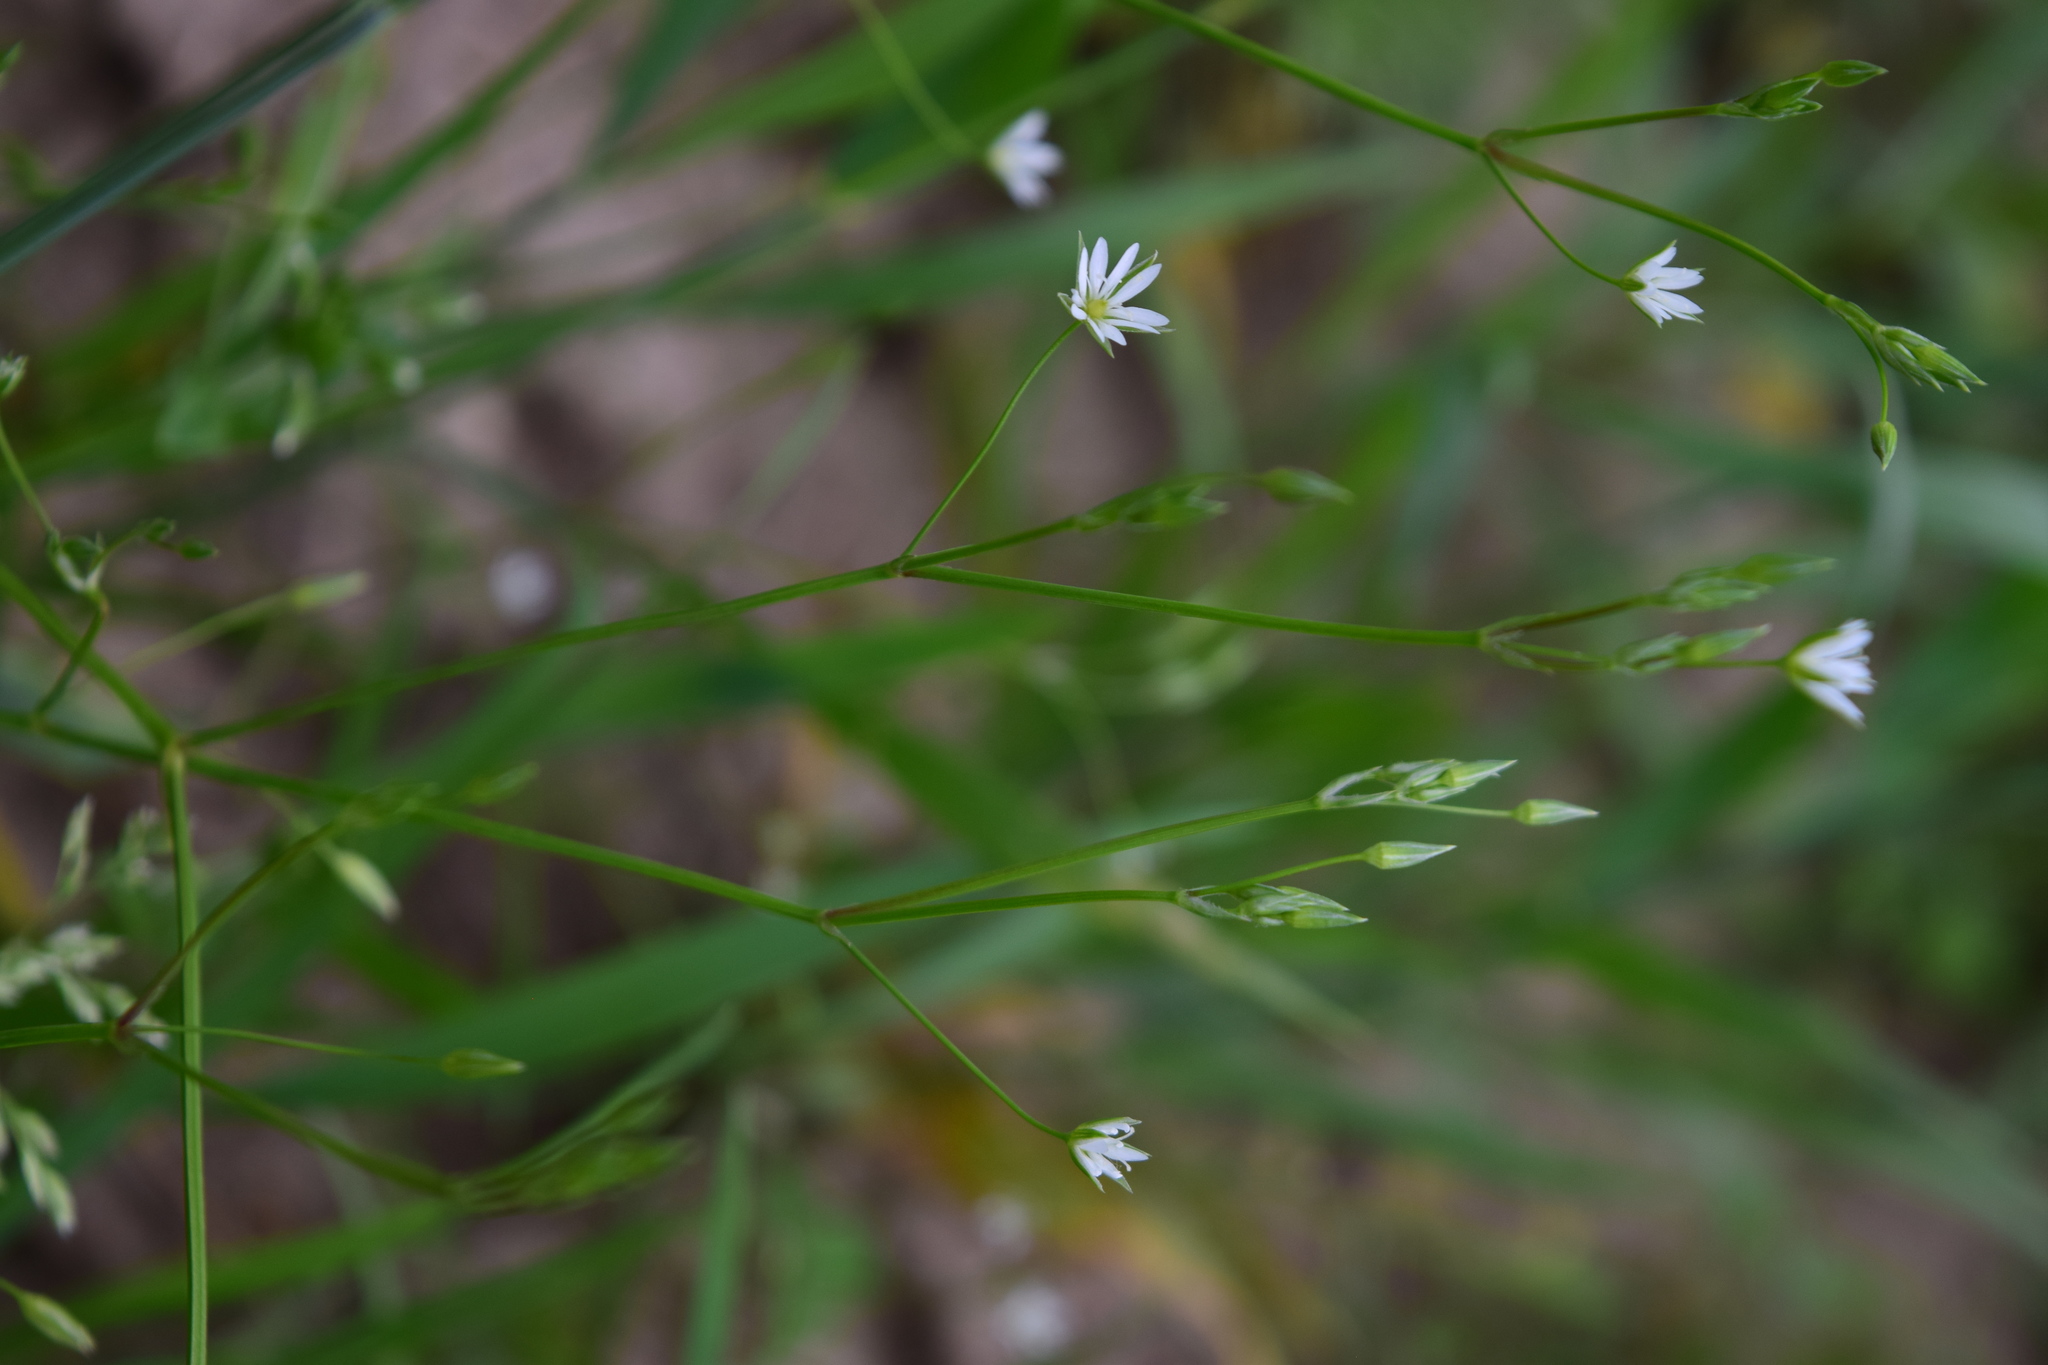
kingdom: Plantae
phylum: Tracheophyta
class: Magnoliopsida
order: Caryophyllales
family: Caryophyllaceae
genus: Stellaria
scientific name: Stellaria graminea
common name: Grass-like starwort
